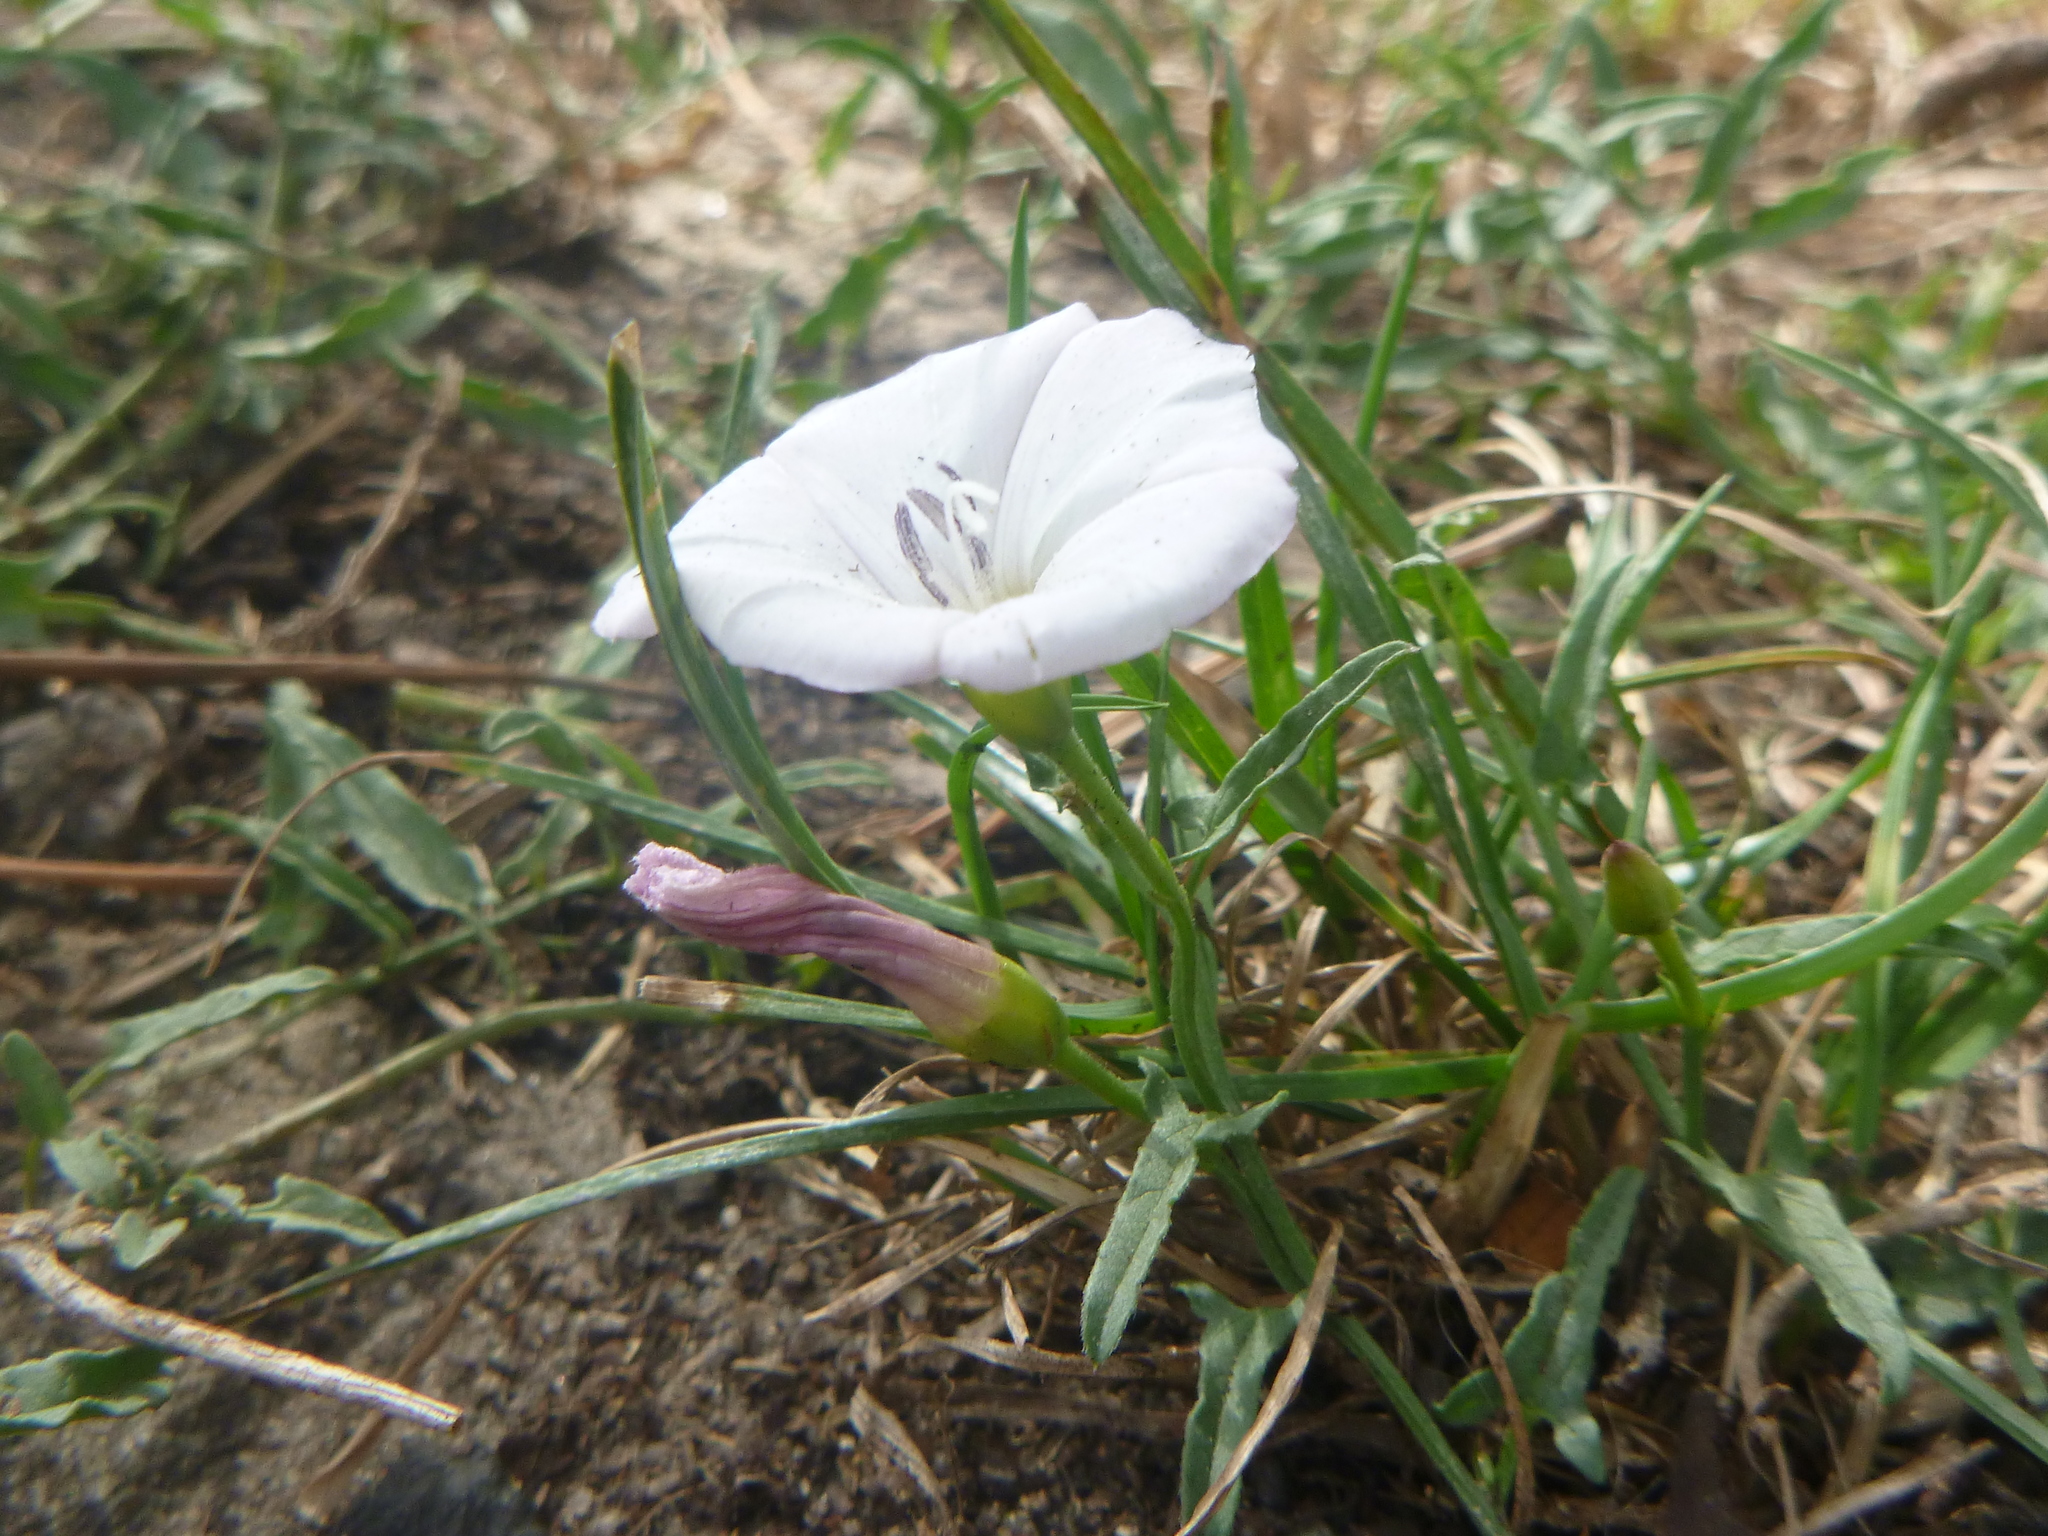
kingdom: Plantae
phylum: Tracheophyta
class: Magnoliopsida
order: Solanales
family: Convolvulaceae
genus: Convolvulus
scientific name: Convolvulus arvensis
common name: Field bindweed
